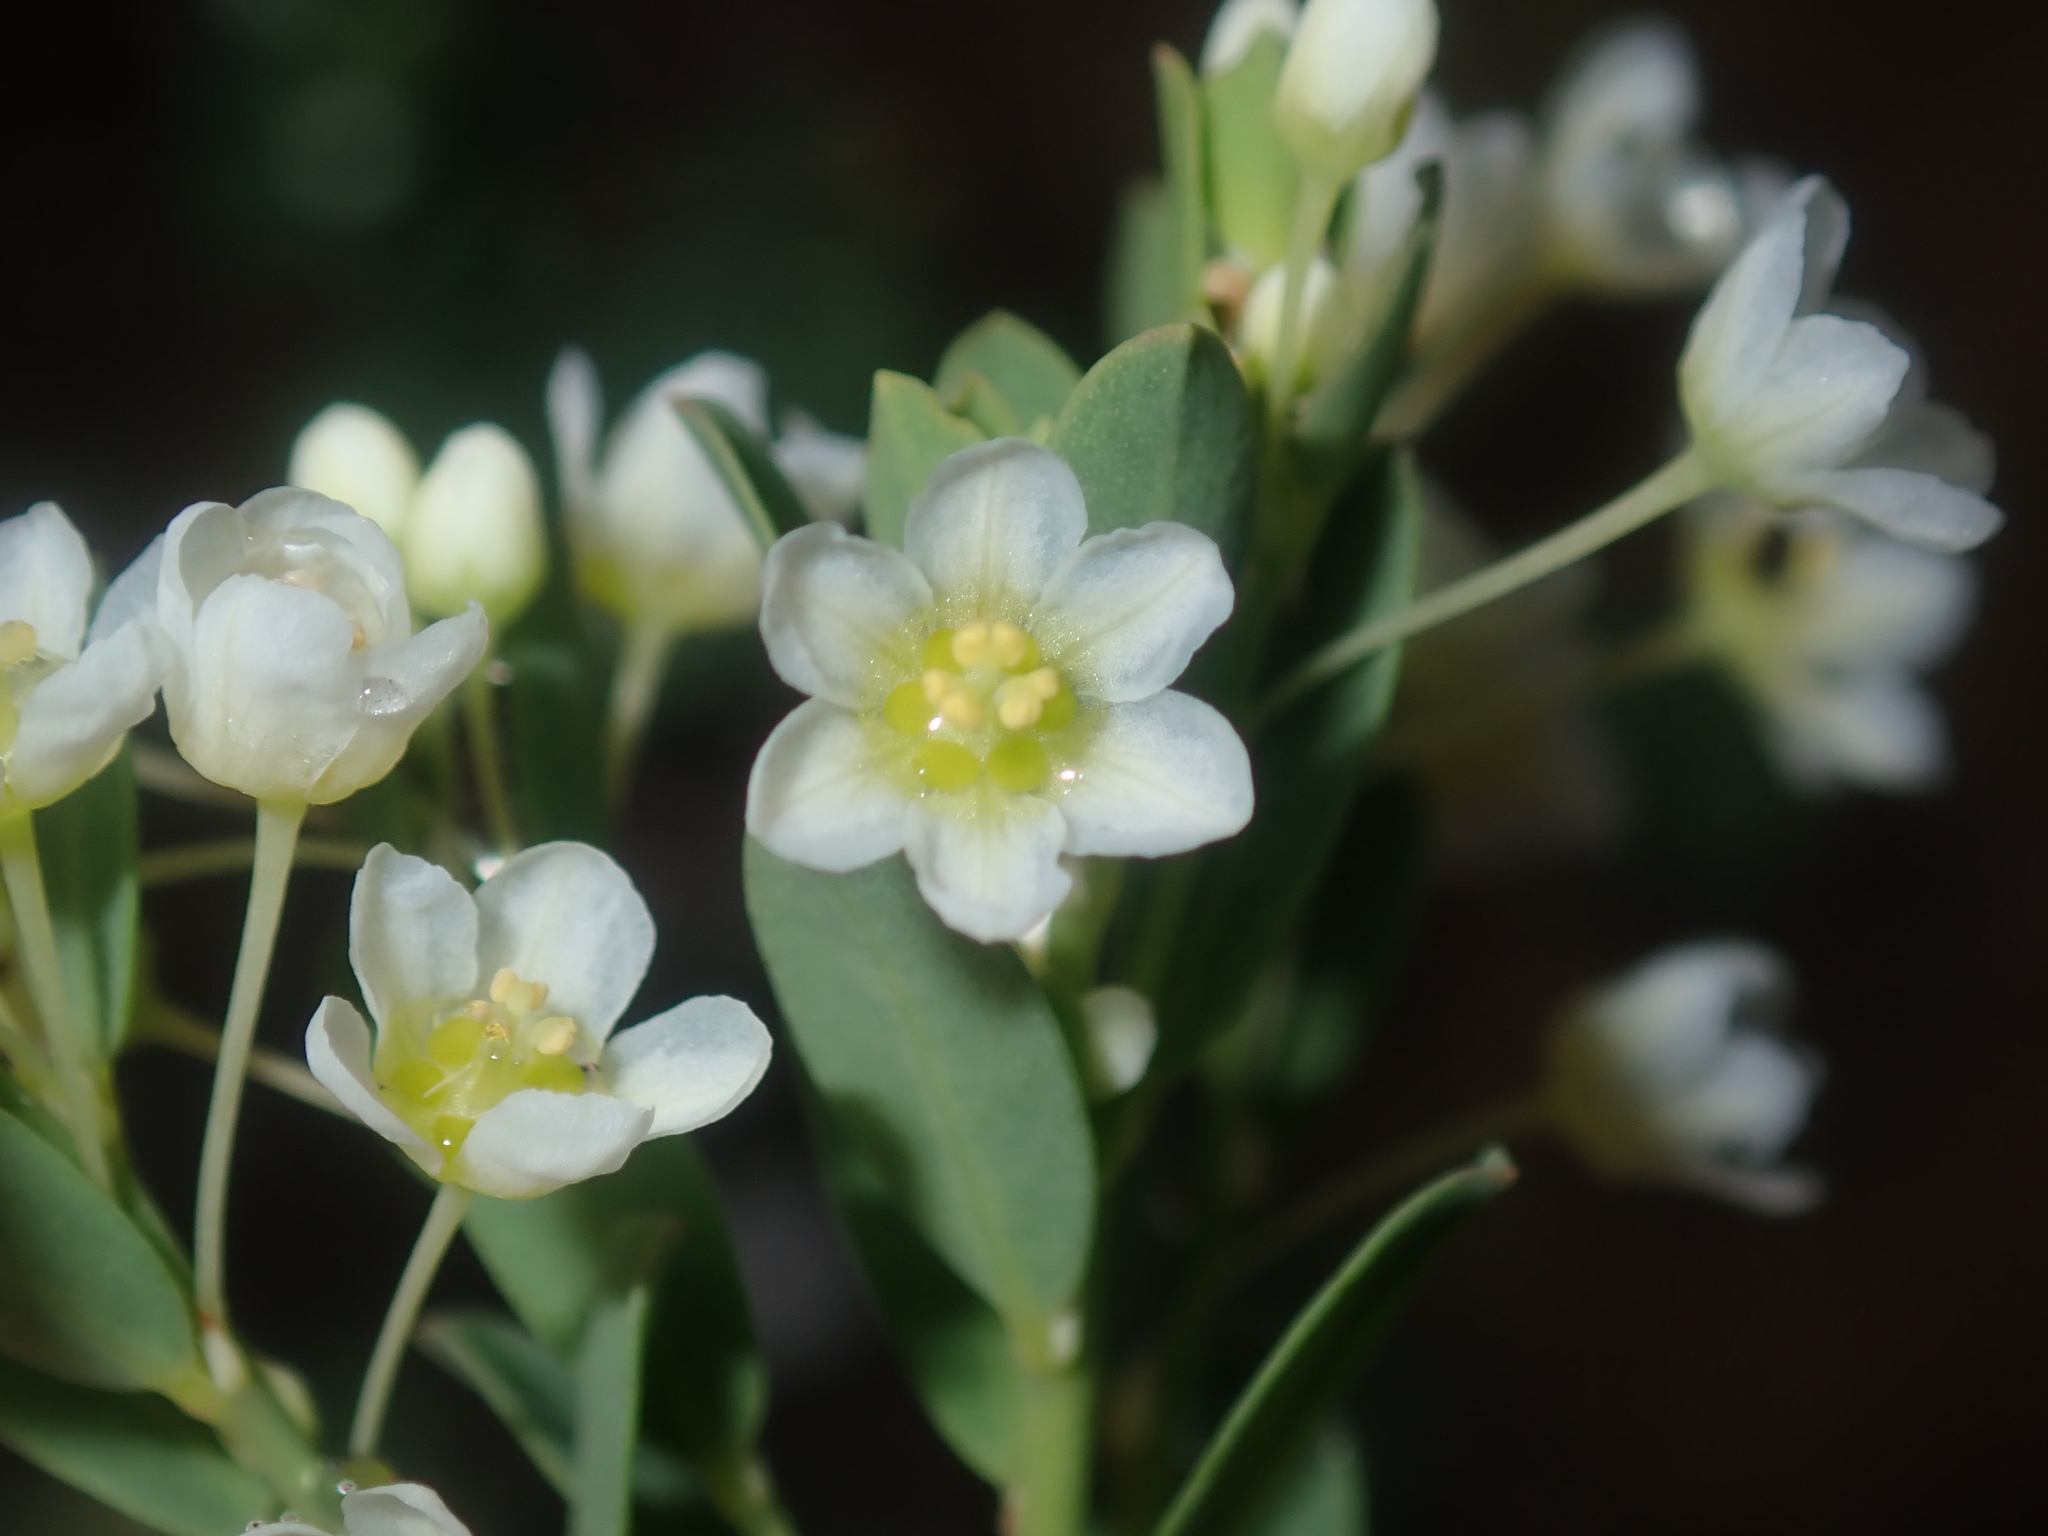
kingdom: Plantae
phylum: Tracheophyta
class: Magnoliopsida
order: Malpighiales
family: Phyllanthaceae
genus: Phyllanthus
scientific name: Phyllanthus calycinus
